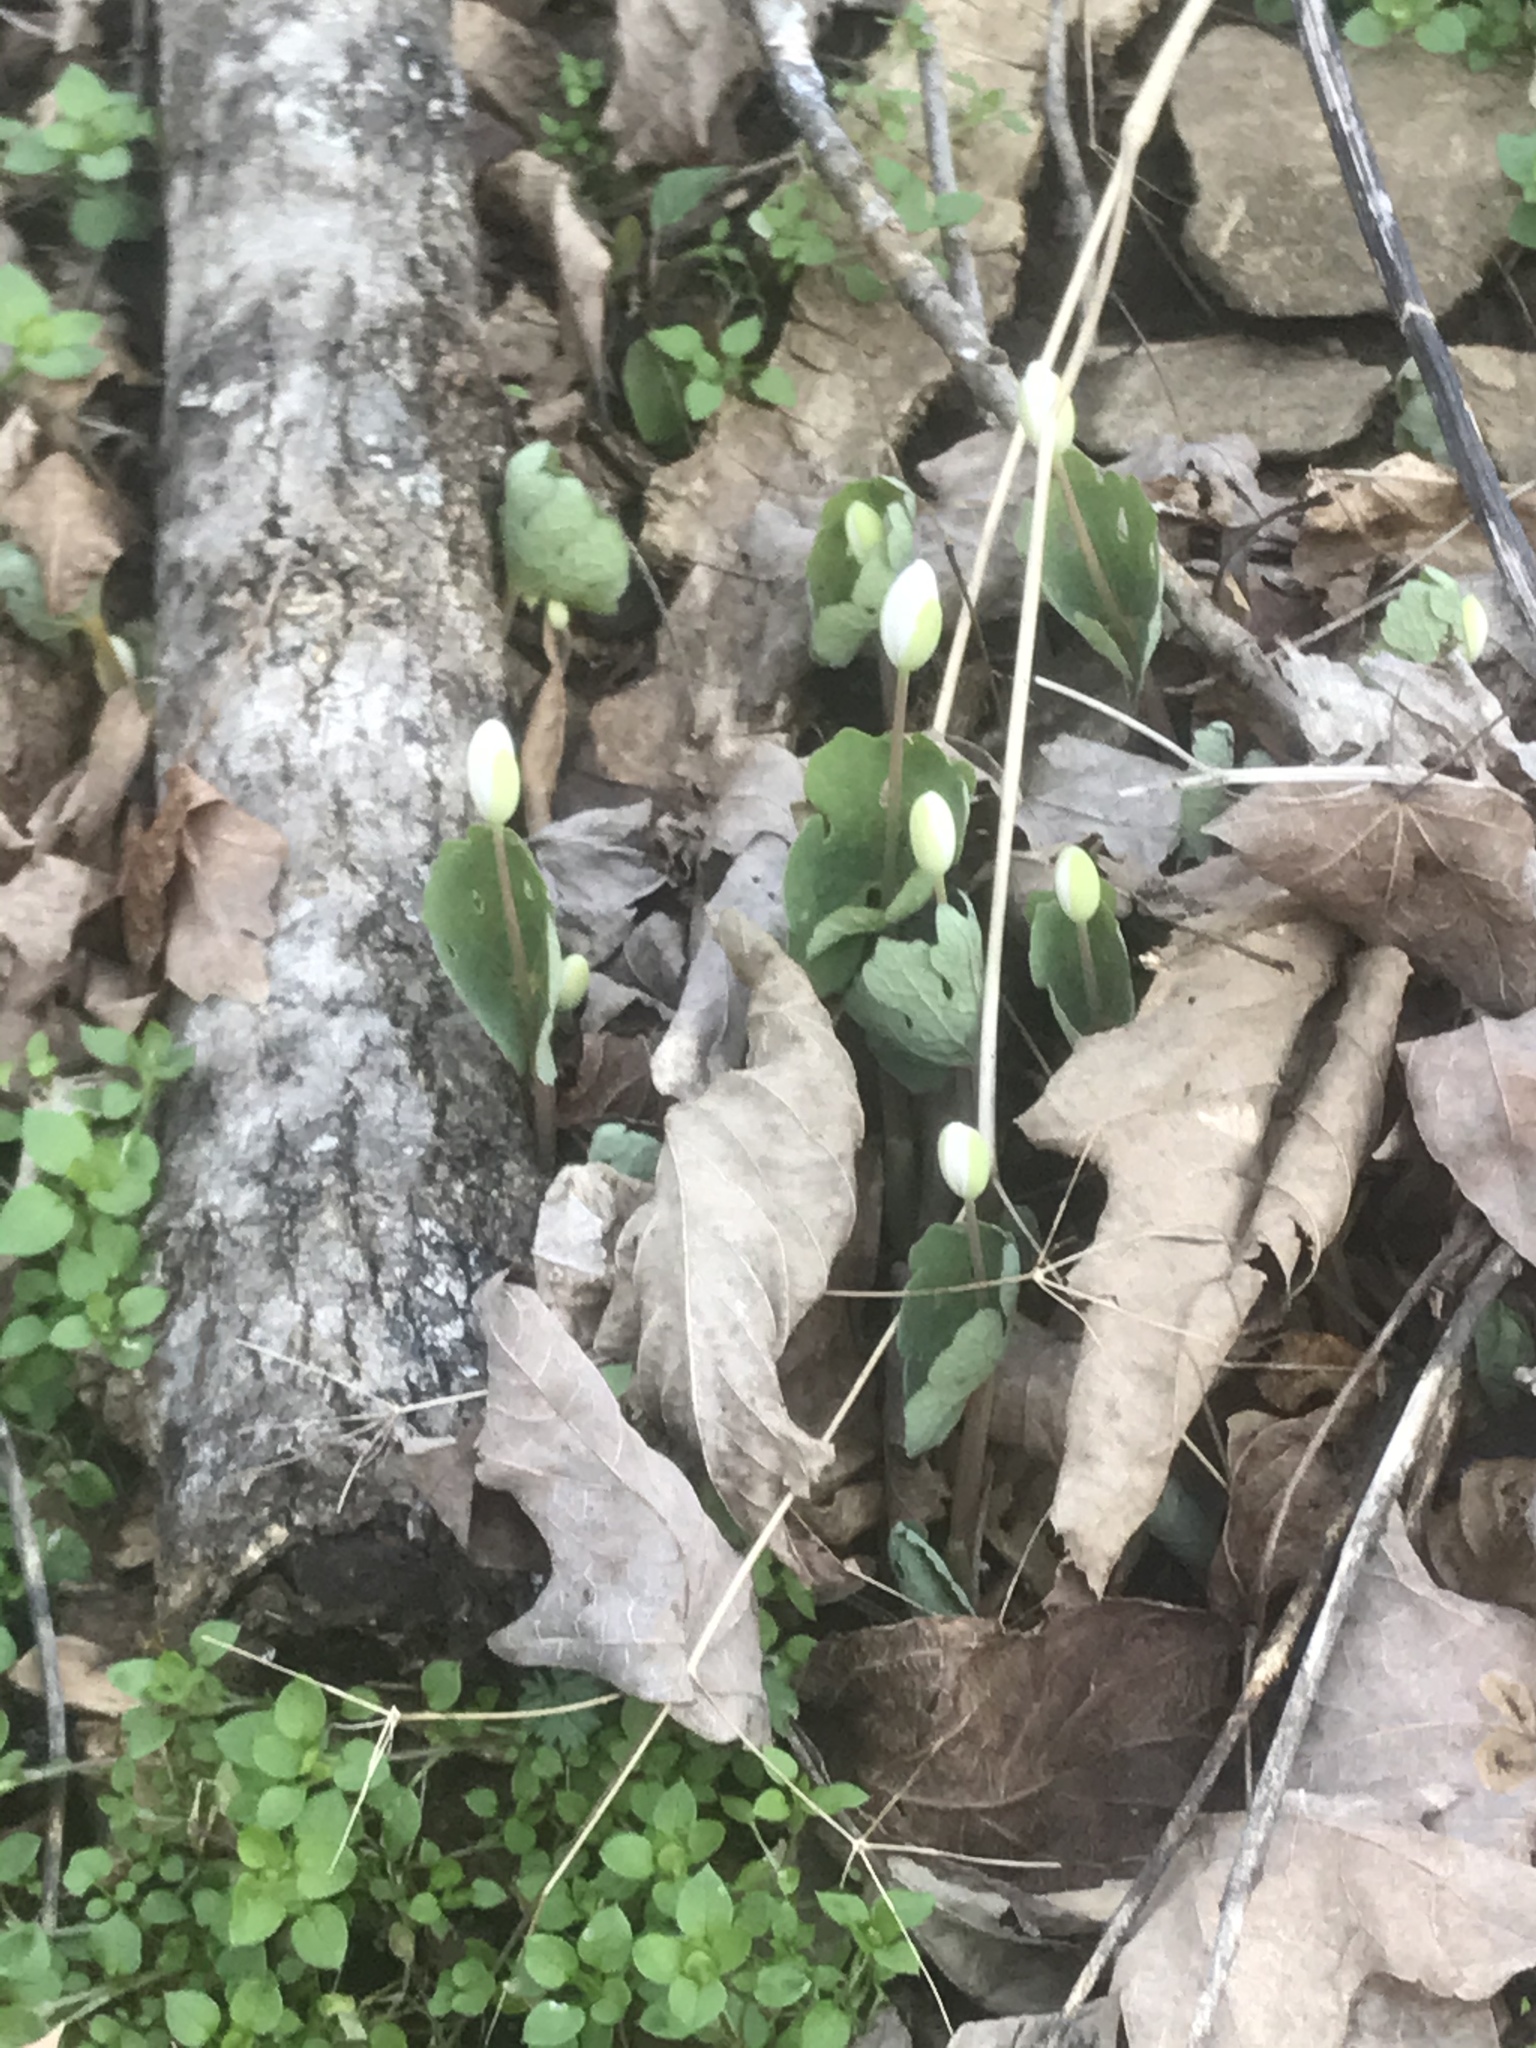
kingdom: Plantae
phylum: Tracheophyta
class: Magnoliopsida
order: Ranunculales
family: Papaveraceae
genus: Sanguinaria
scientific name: Sanguinaria canadensis
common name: Bloodroot
